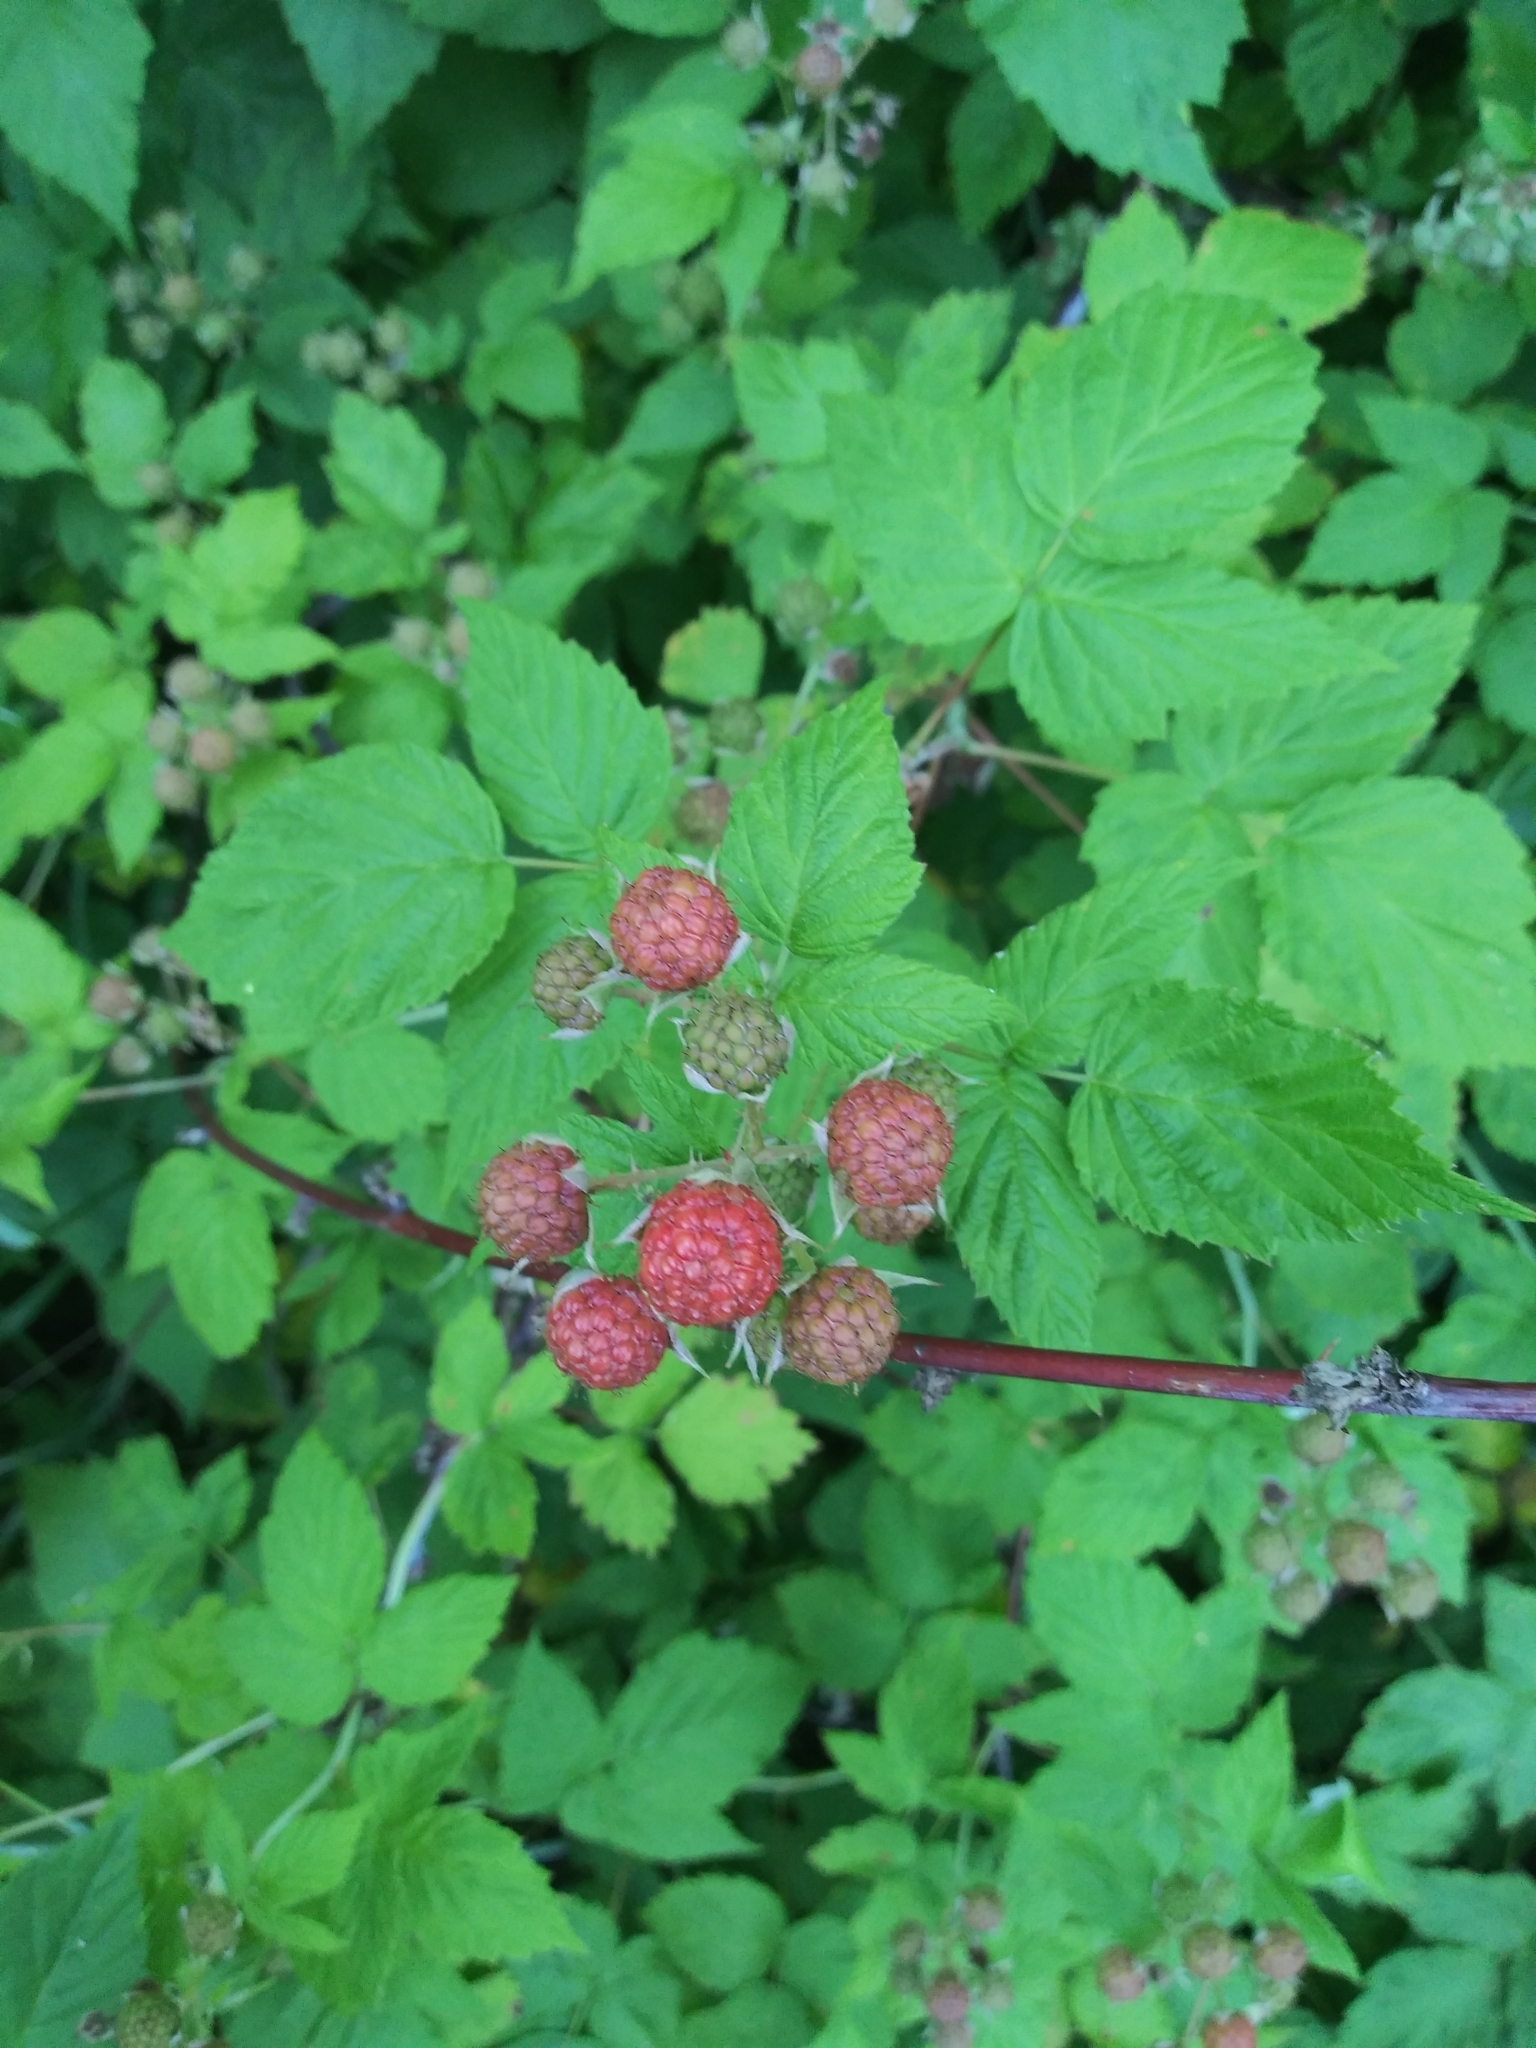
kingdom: Plantae
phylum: Tracheophyta
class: Magnoliopsida
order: Rosales
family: Rosaceae
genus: Rubus
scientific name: Rubus occidentalis
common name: Black raspberry
